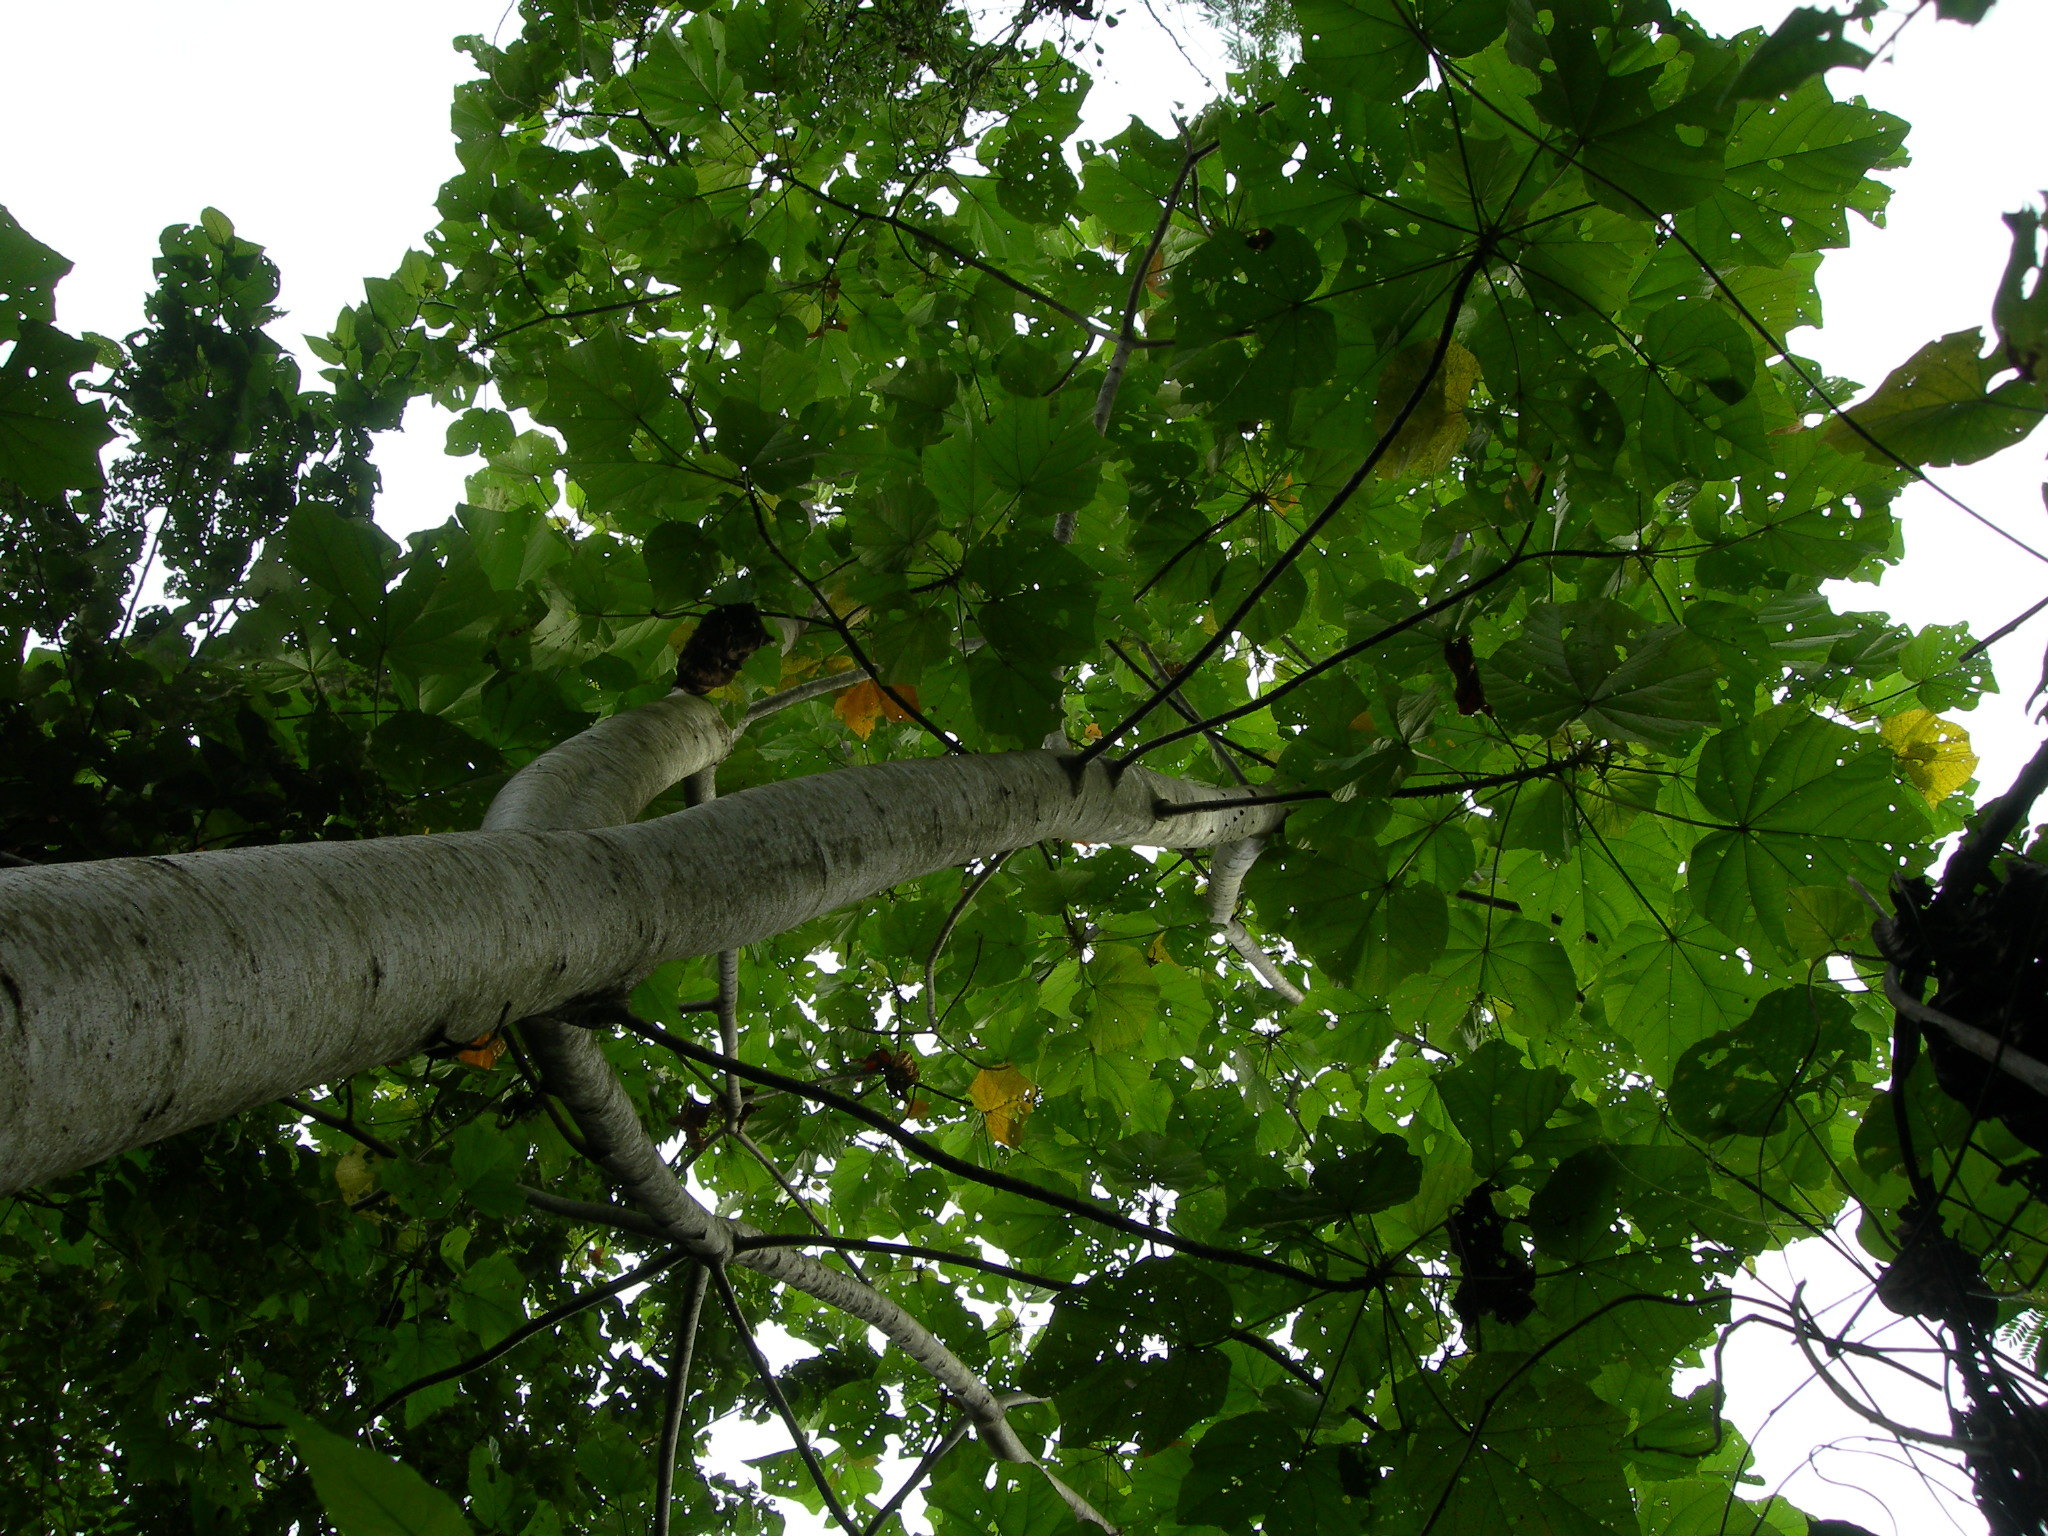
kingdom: Plantae
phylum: Tracheophyta
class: Magnoliopsida
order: Malvales
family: Malvaceae
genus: Ochroma
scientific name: Ochroma pyramidale
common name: Balsa
